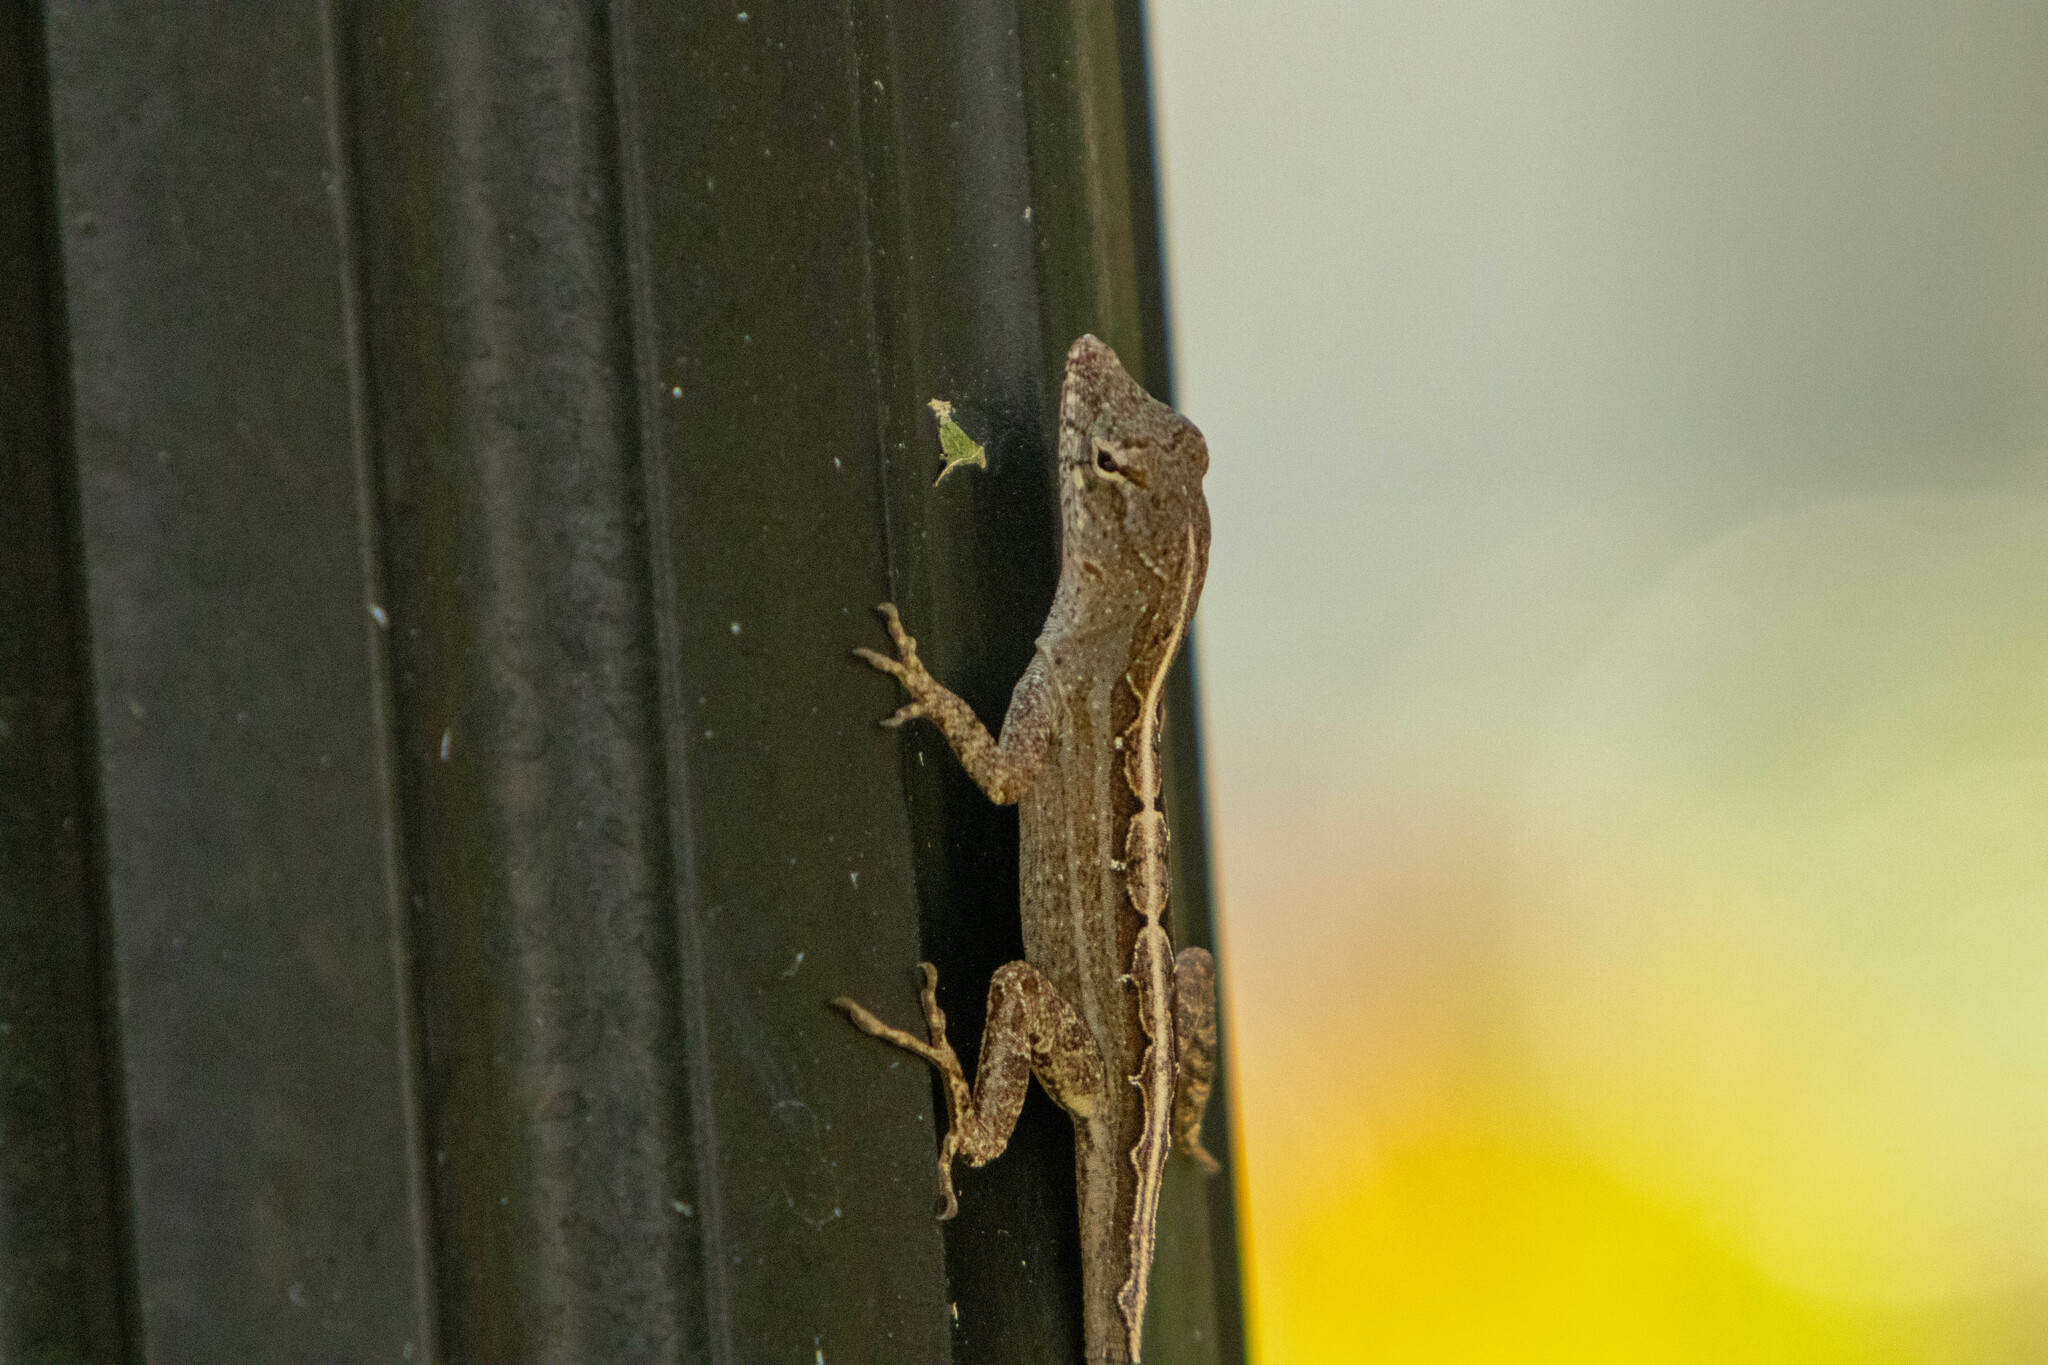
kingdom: Animalia
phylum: Chordata
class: Squamata
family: Dactyloidae
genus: Anolis
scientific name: Anolis sagrei
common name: Brown anole
